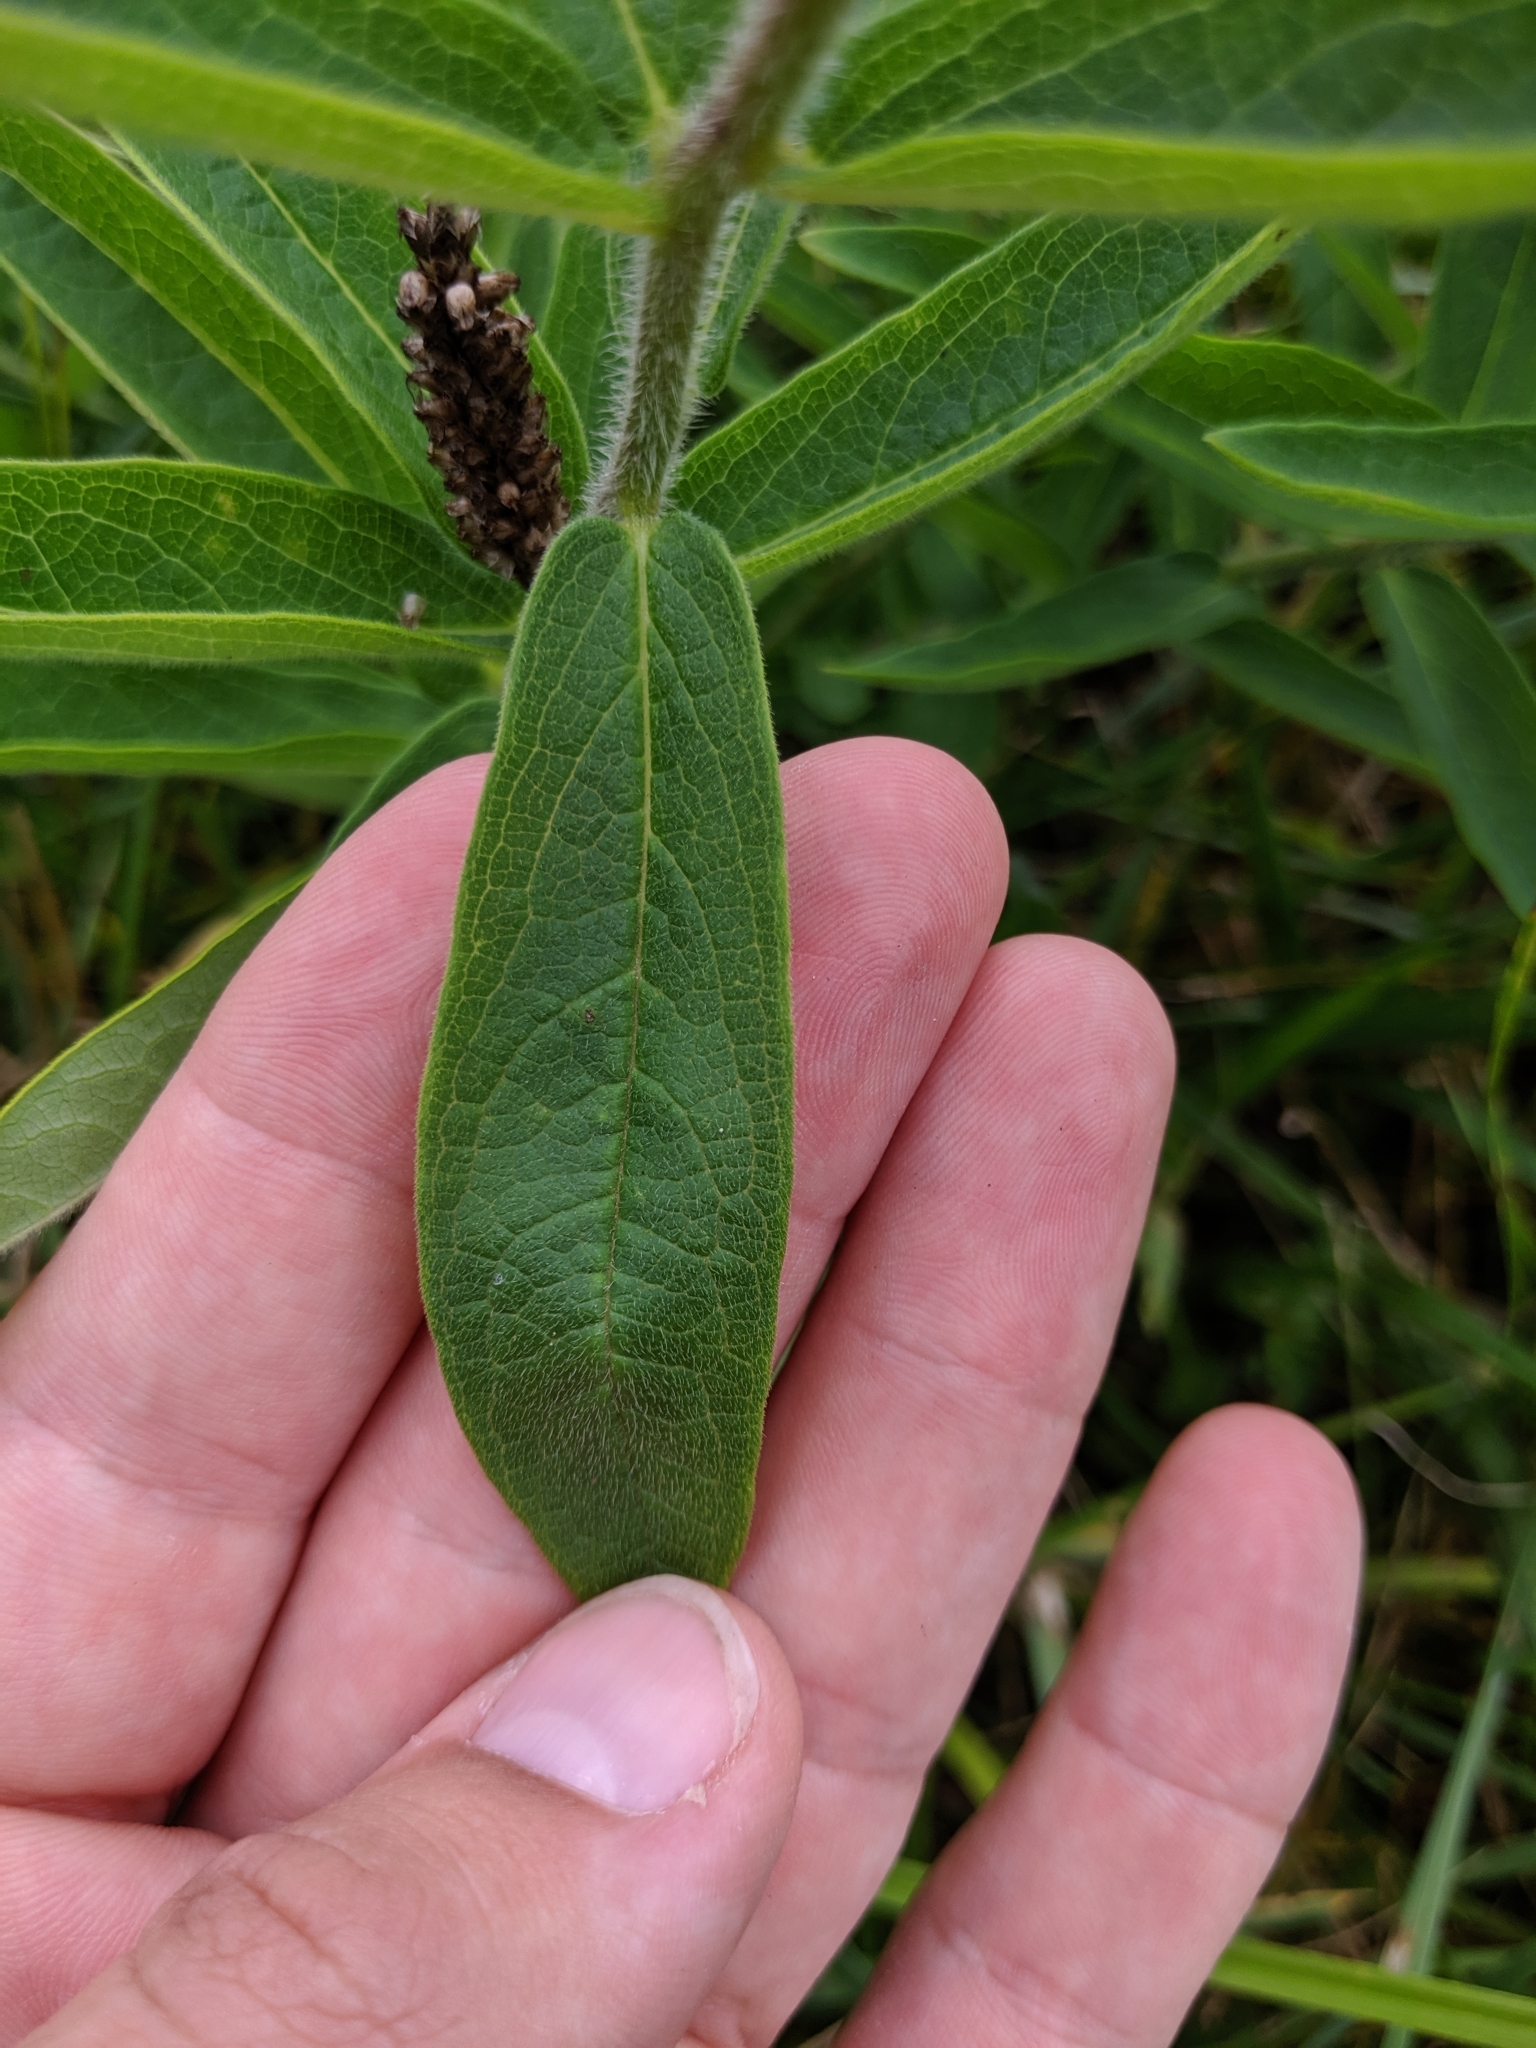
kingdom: Plantae
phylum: Tracheophyta
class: Magnoliopsida
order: Gentianales
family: Apocynaceae
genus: Asclepias
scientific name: Asclepias tuberosa
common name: Butterfly milkweed
